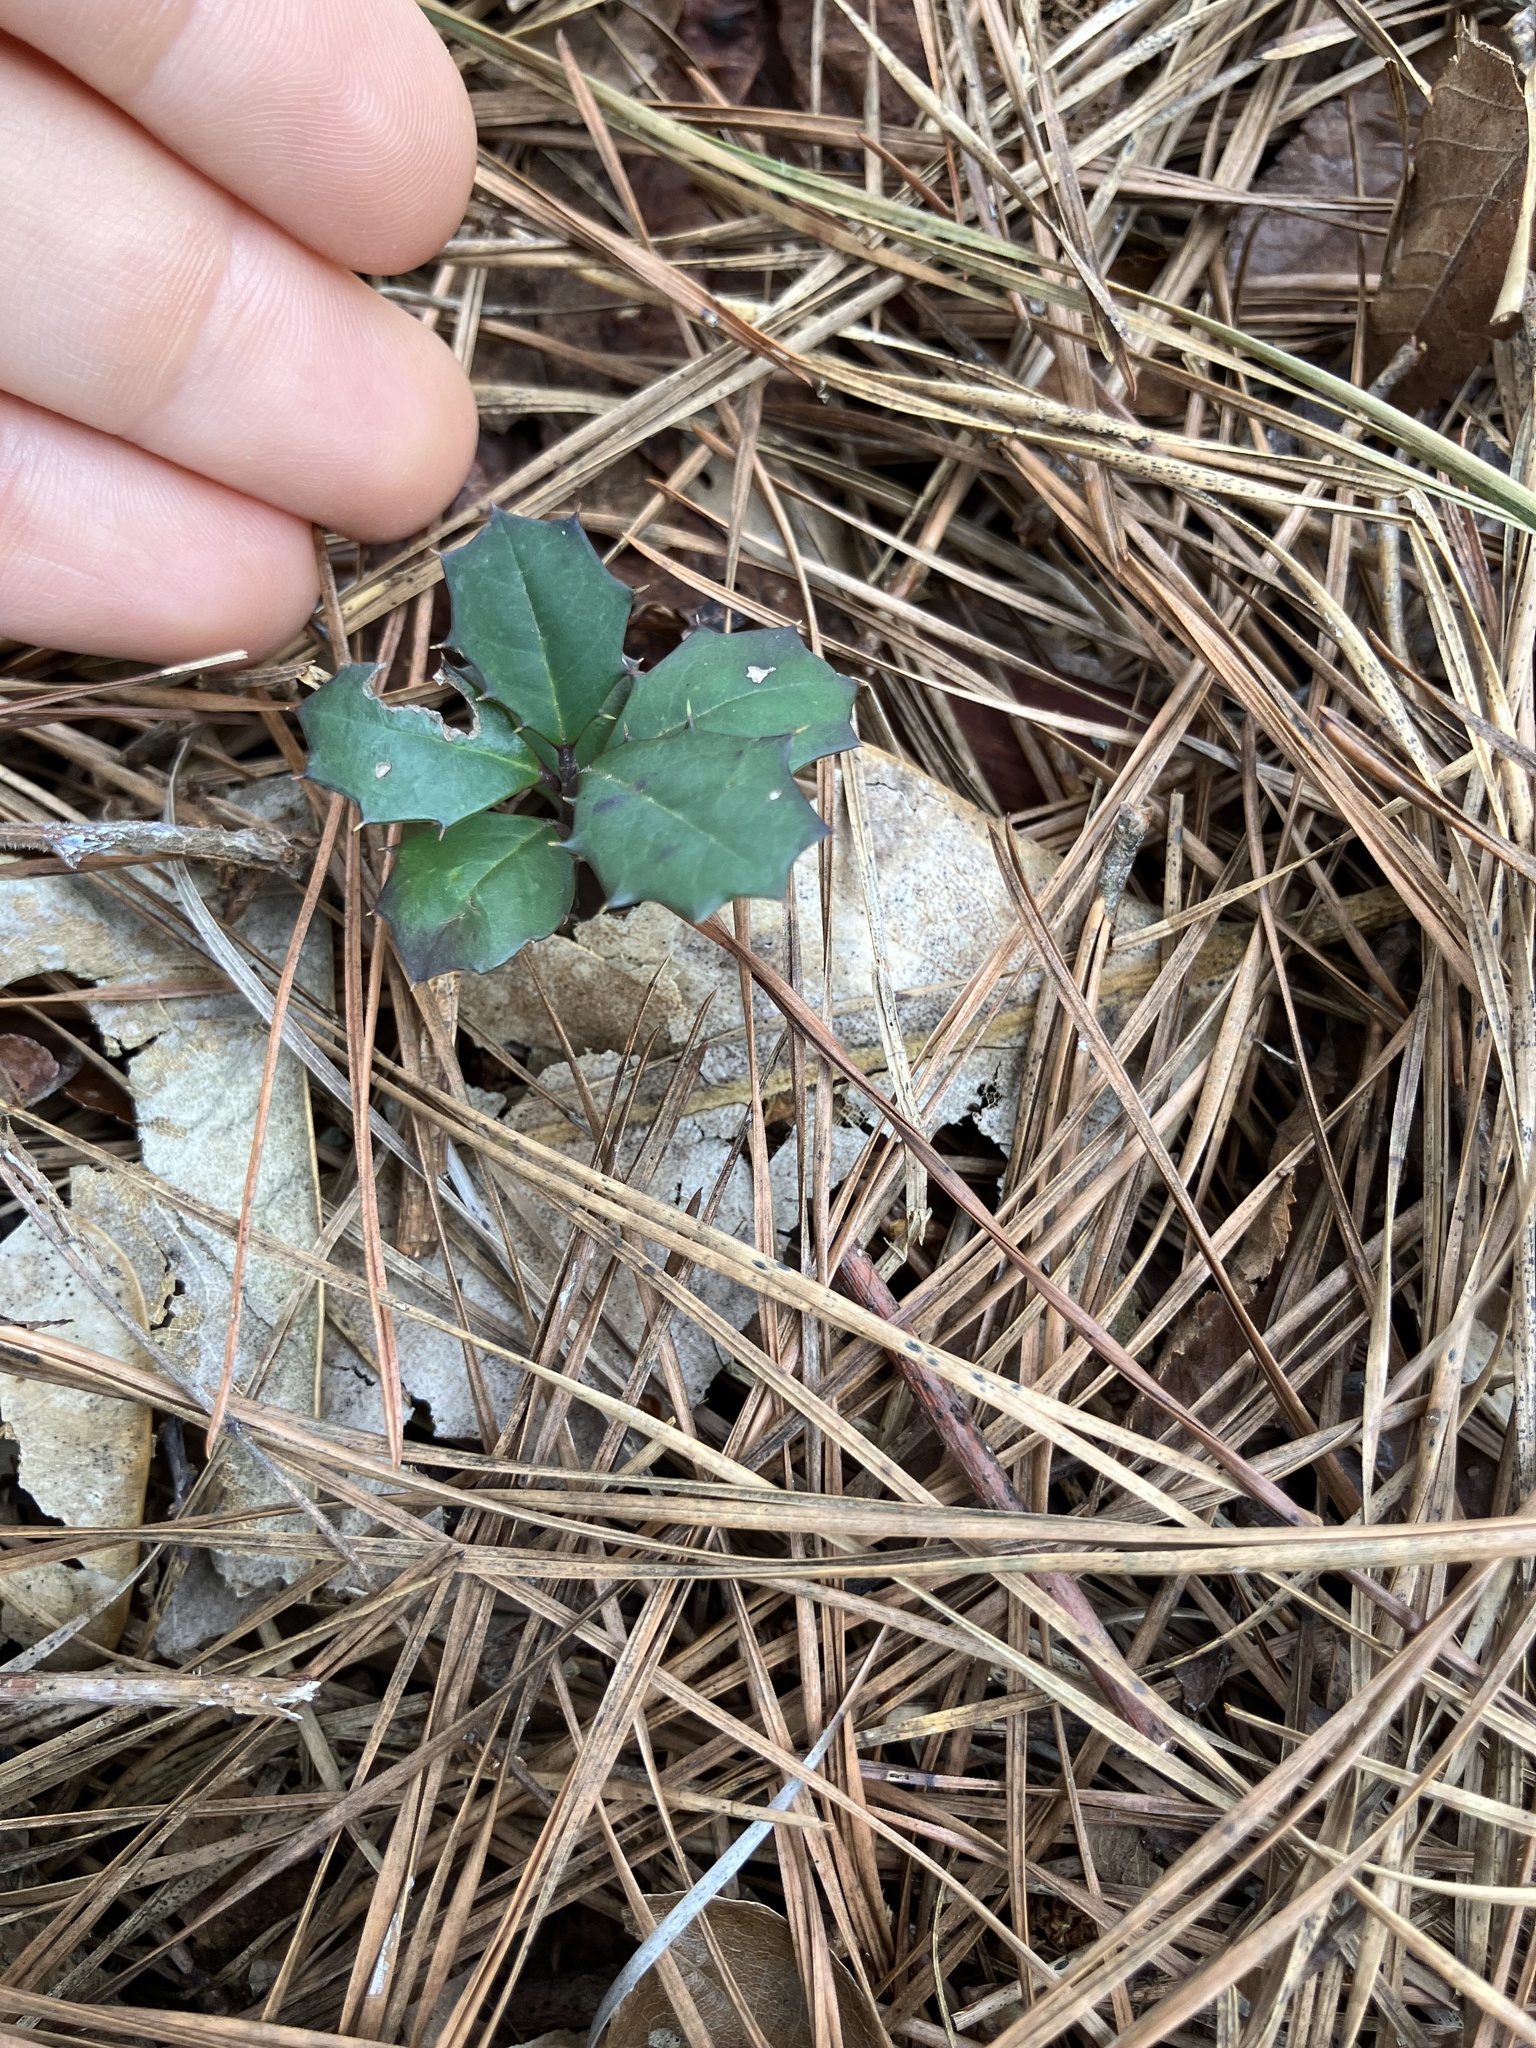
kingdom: Plantae
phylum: Tracheophyta
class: Magnoliopsida
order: Aquifoliales
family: Aquifoliaceae
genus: Ilex
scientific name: Ilex opaca
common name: American holly
